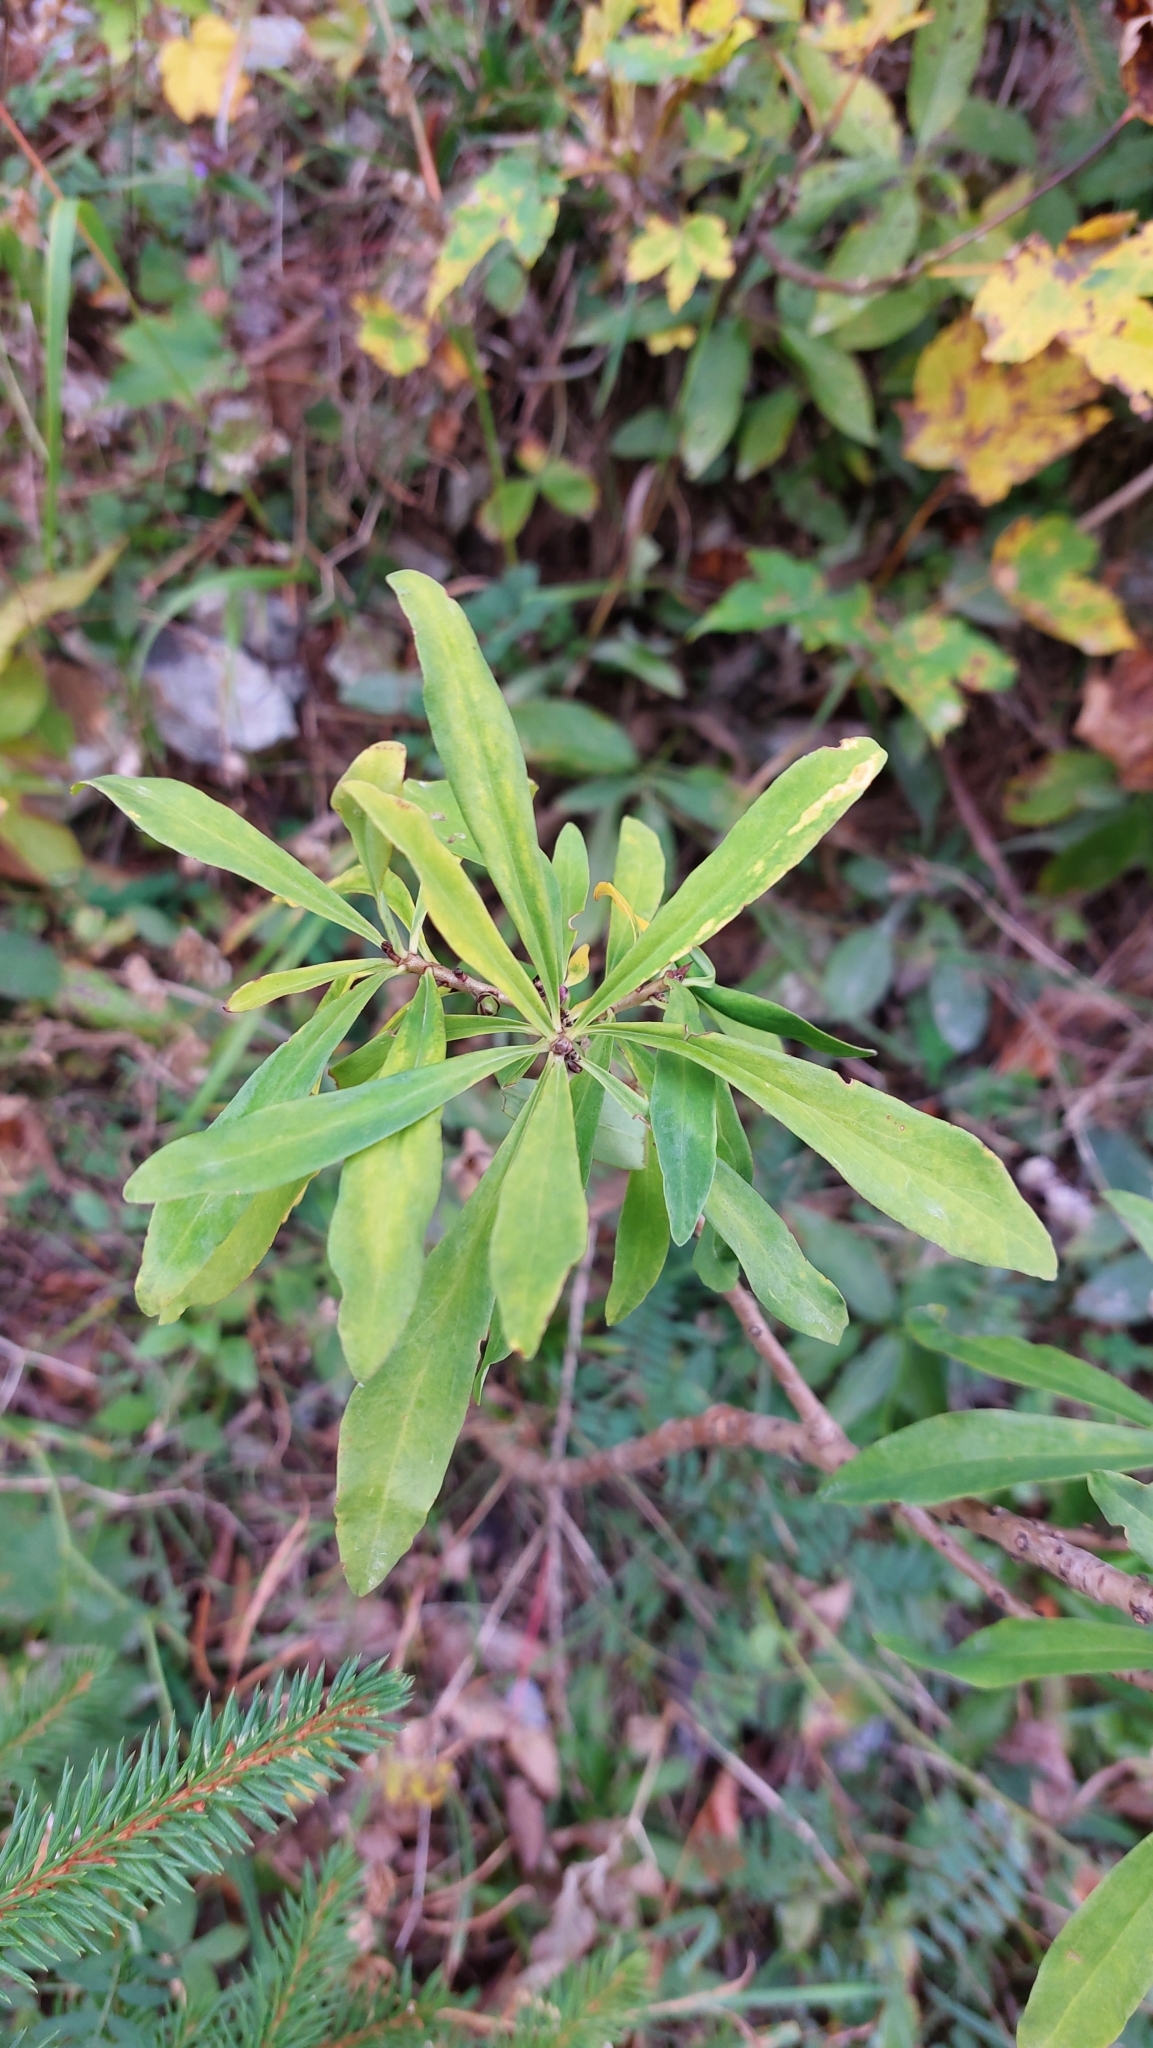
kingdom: Plantae
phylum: Tracheophyta
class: Magnoliopsida
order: Malvales
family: Thymelaeaceae
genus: Daphne
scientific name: Daphne mezereum
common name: Mezereon
